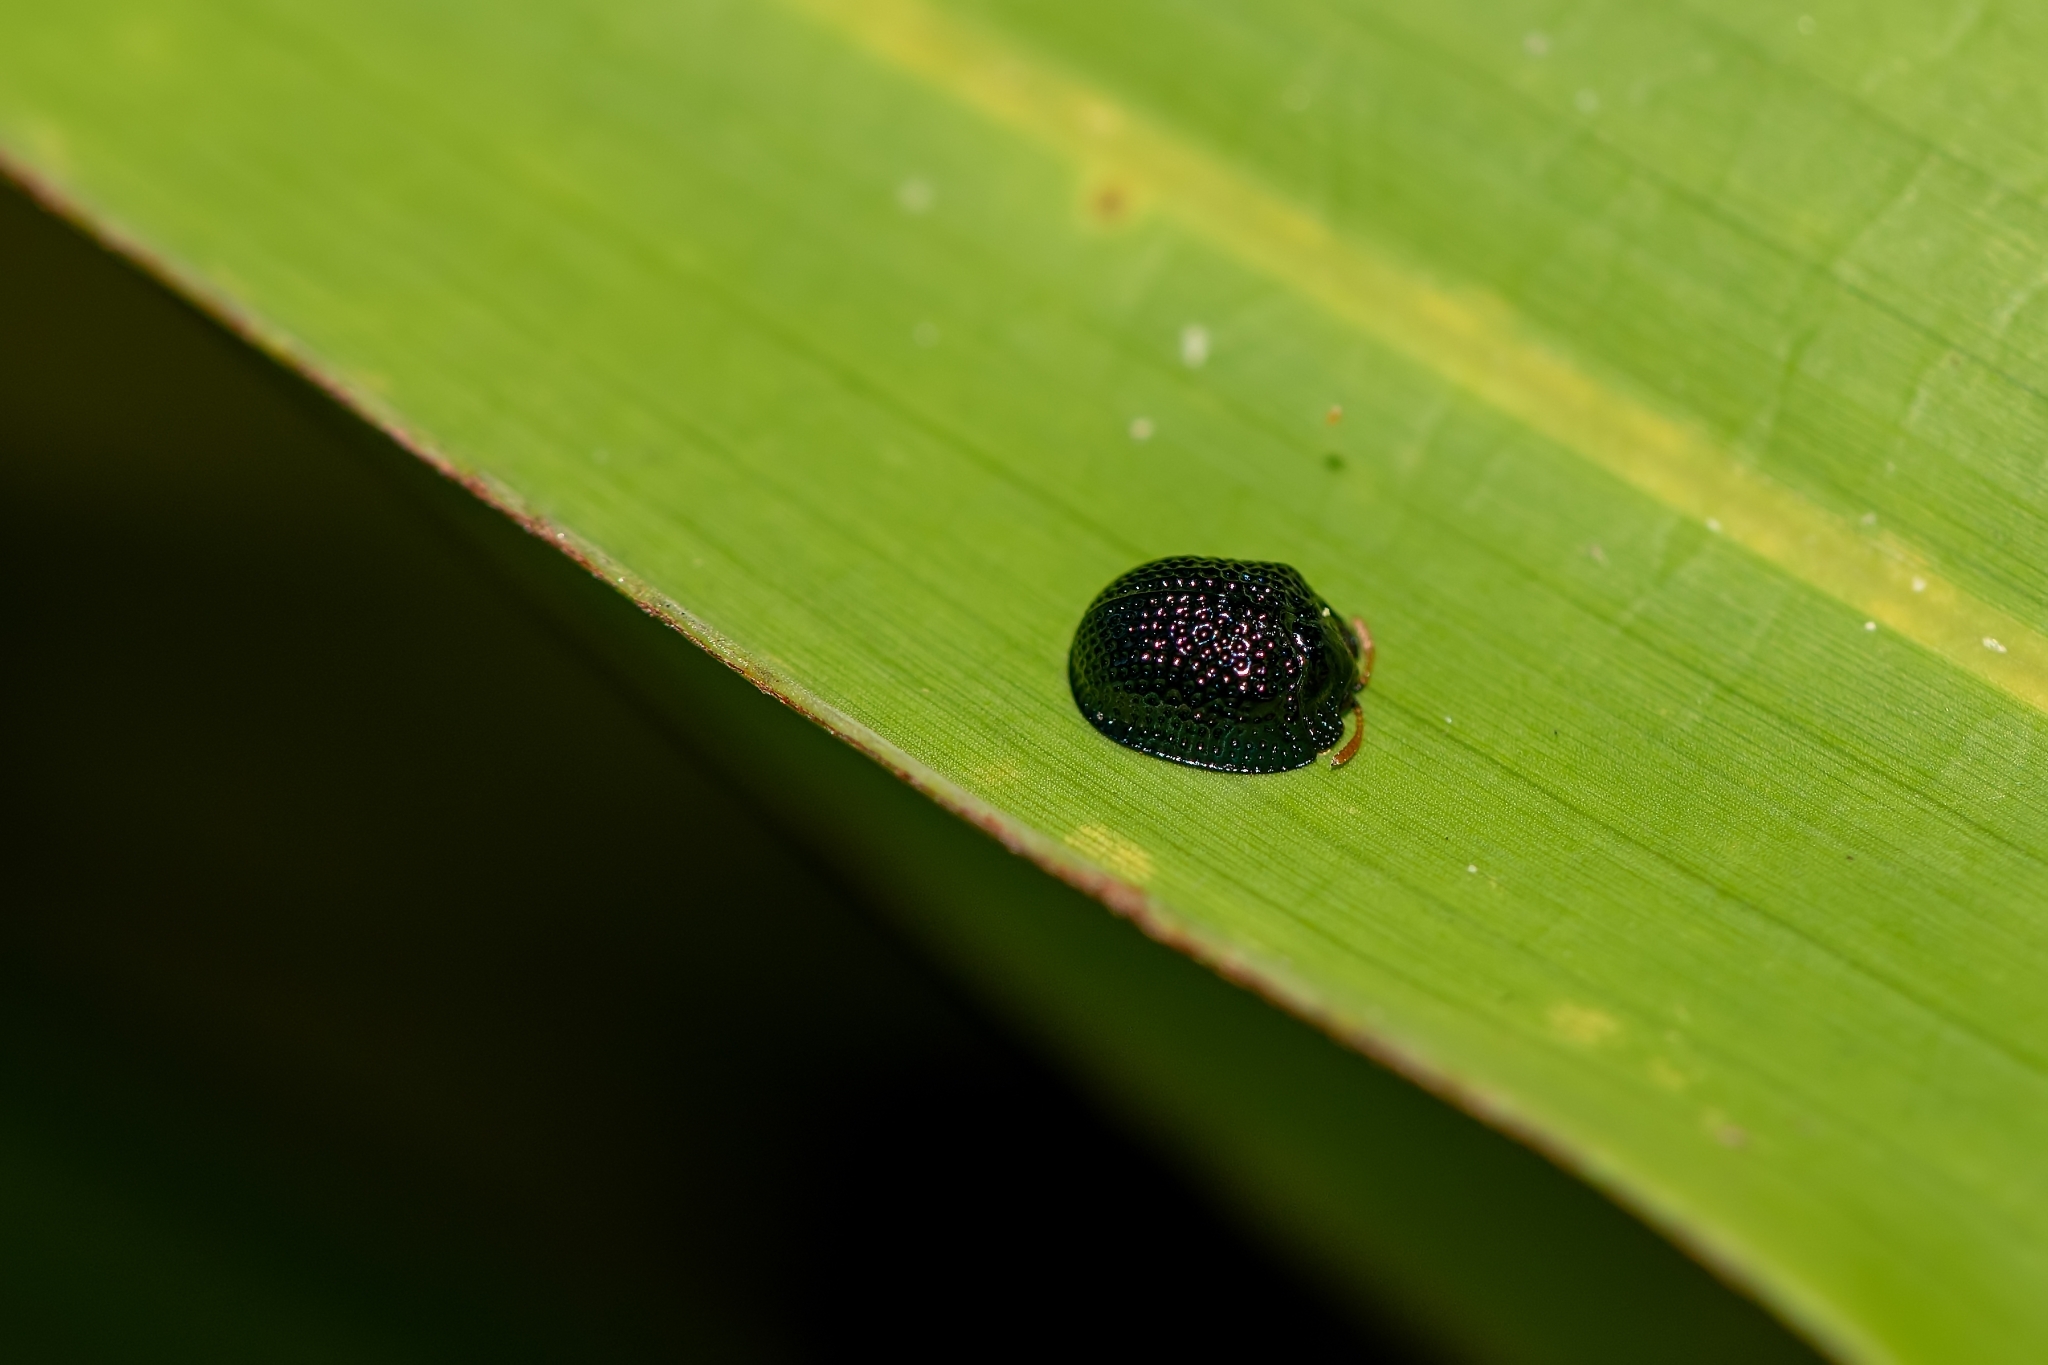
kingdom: Animalia
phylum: Arthropoda
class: Insecta
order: Coleoptera
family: Chrysomelidae
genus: Hemisphaerota
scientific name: Hemisphaerota cyanea
